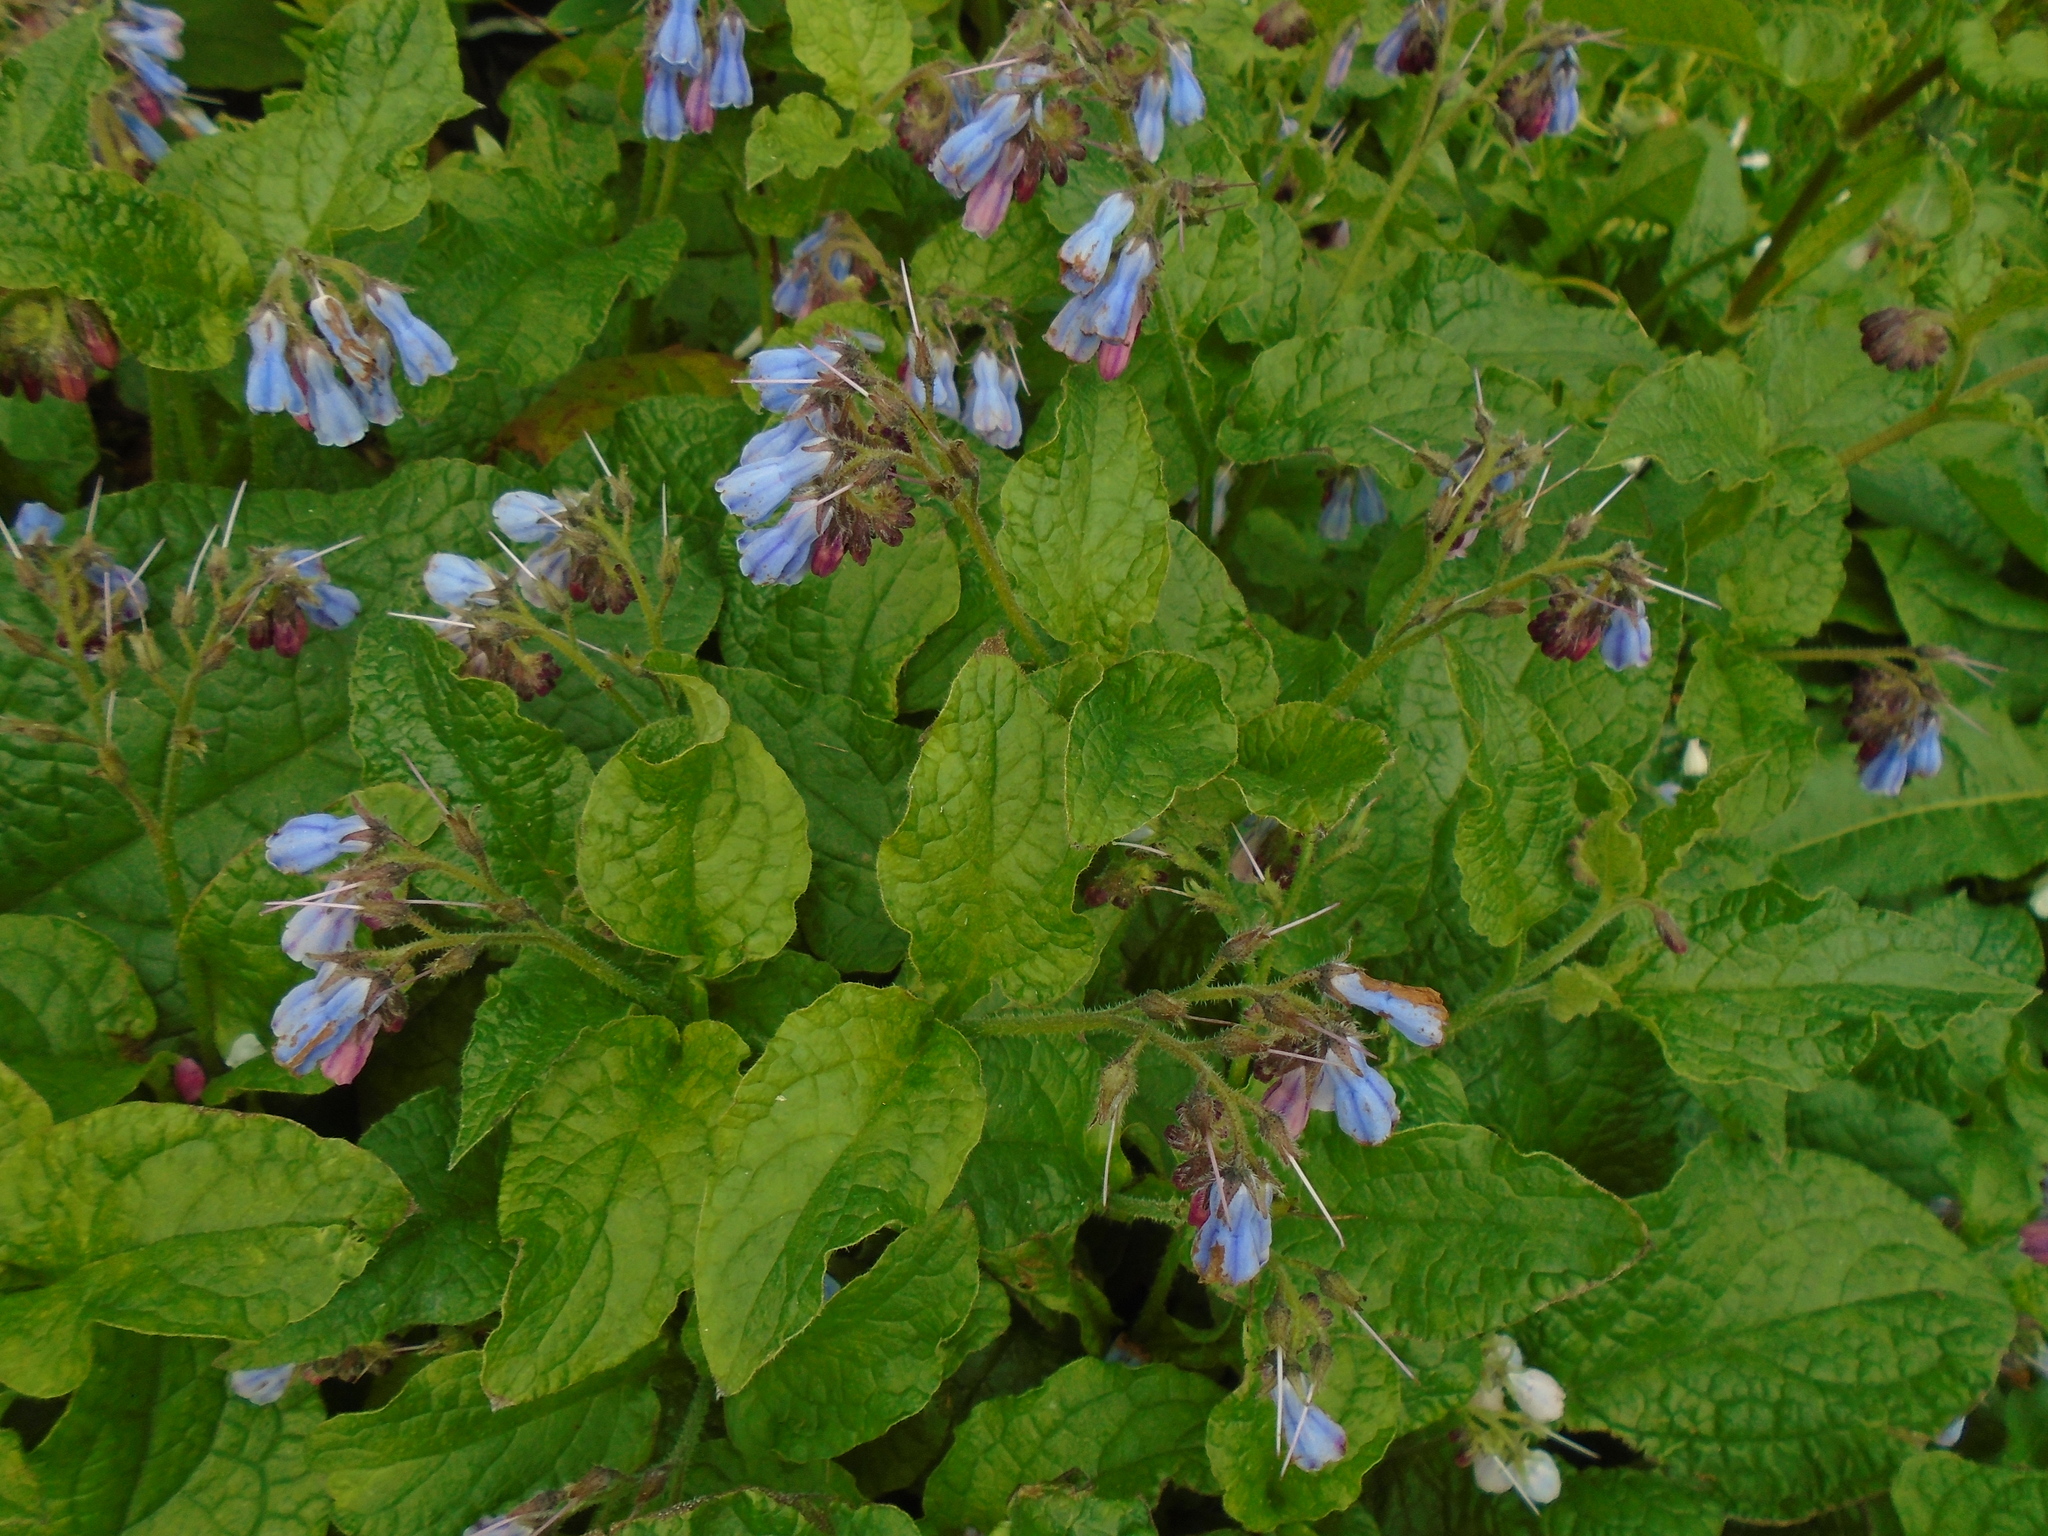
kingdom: Plantae
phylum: Tracheophyta
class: Magnoliopsida
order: Boraginales
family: Boraginaceae
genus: Symphytum
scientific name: Symphytum hidcotense
